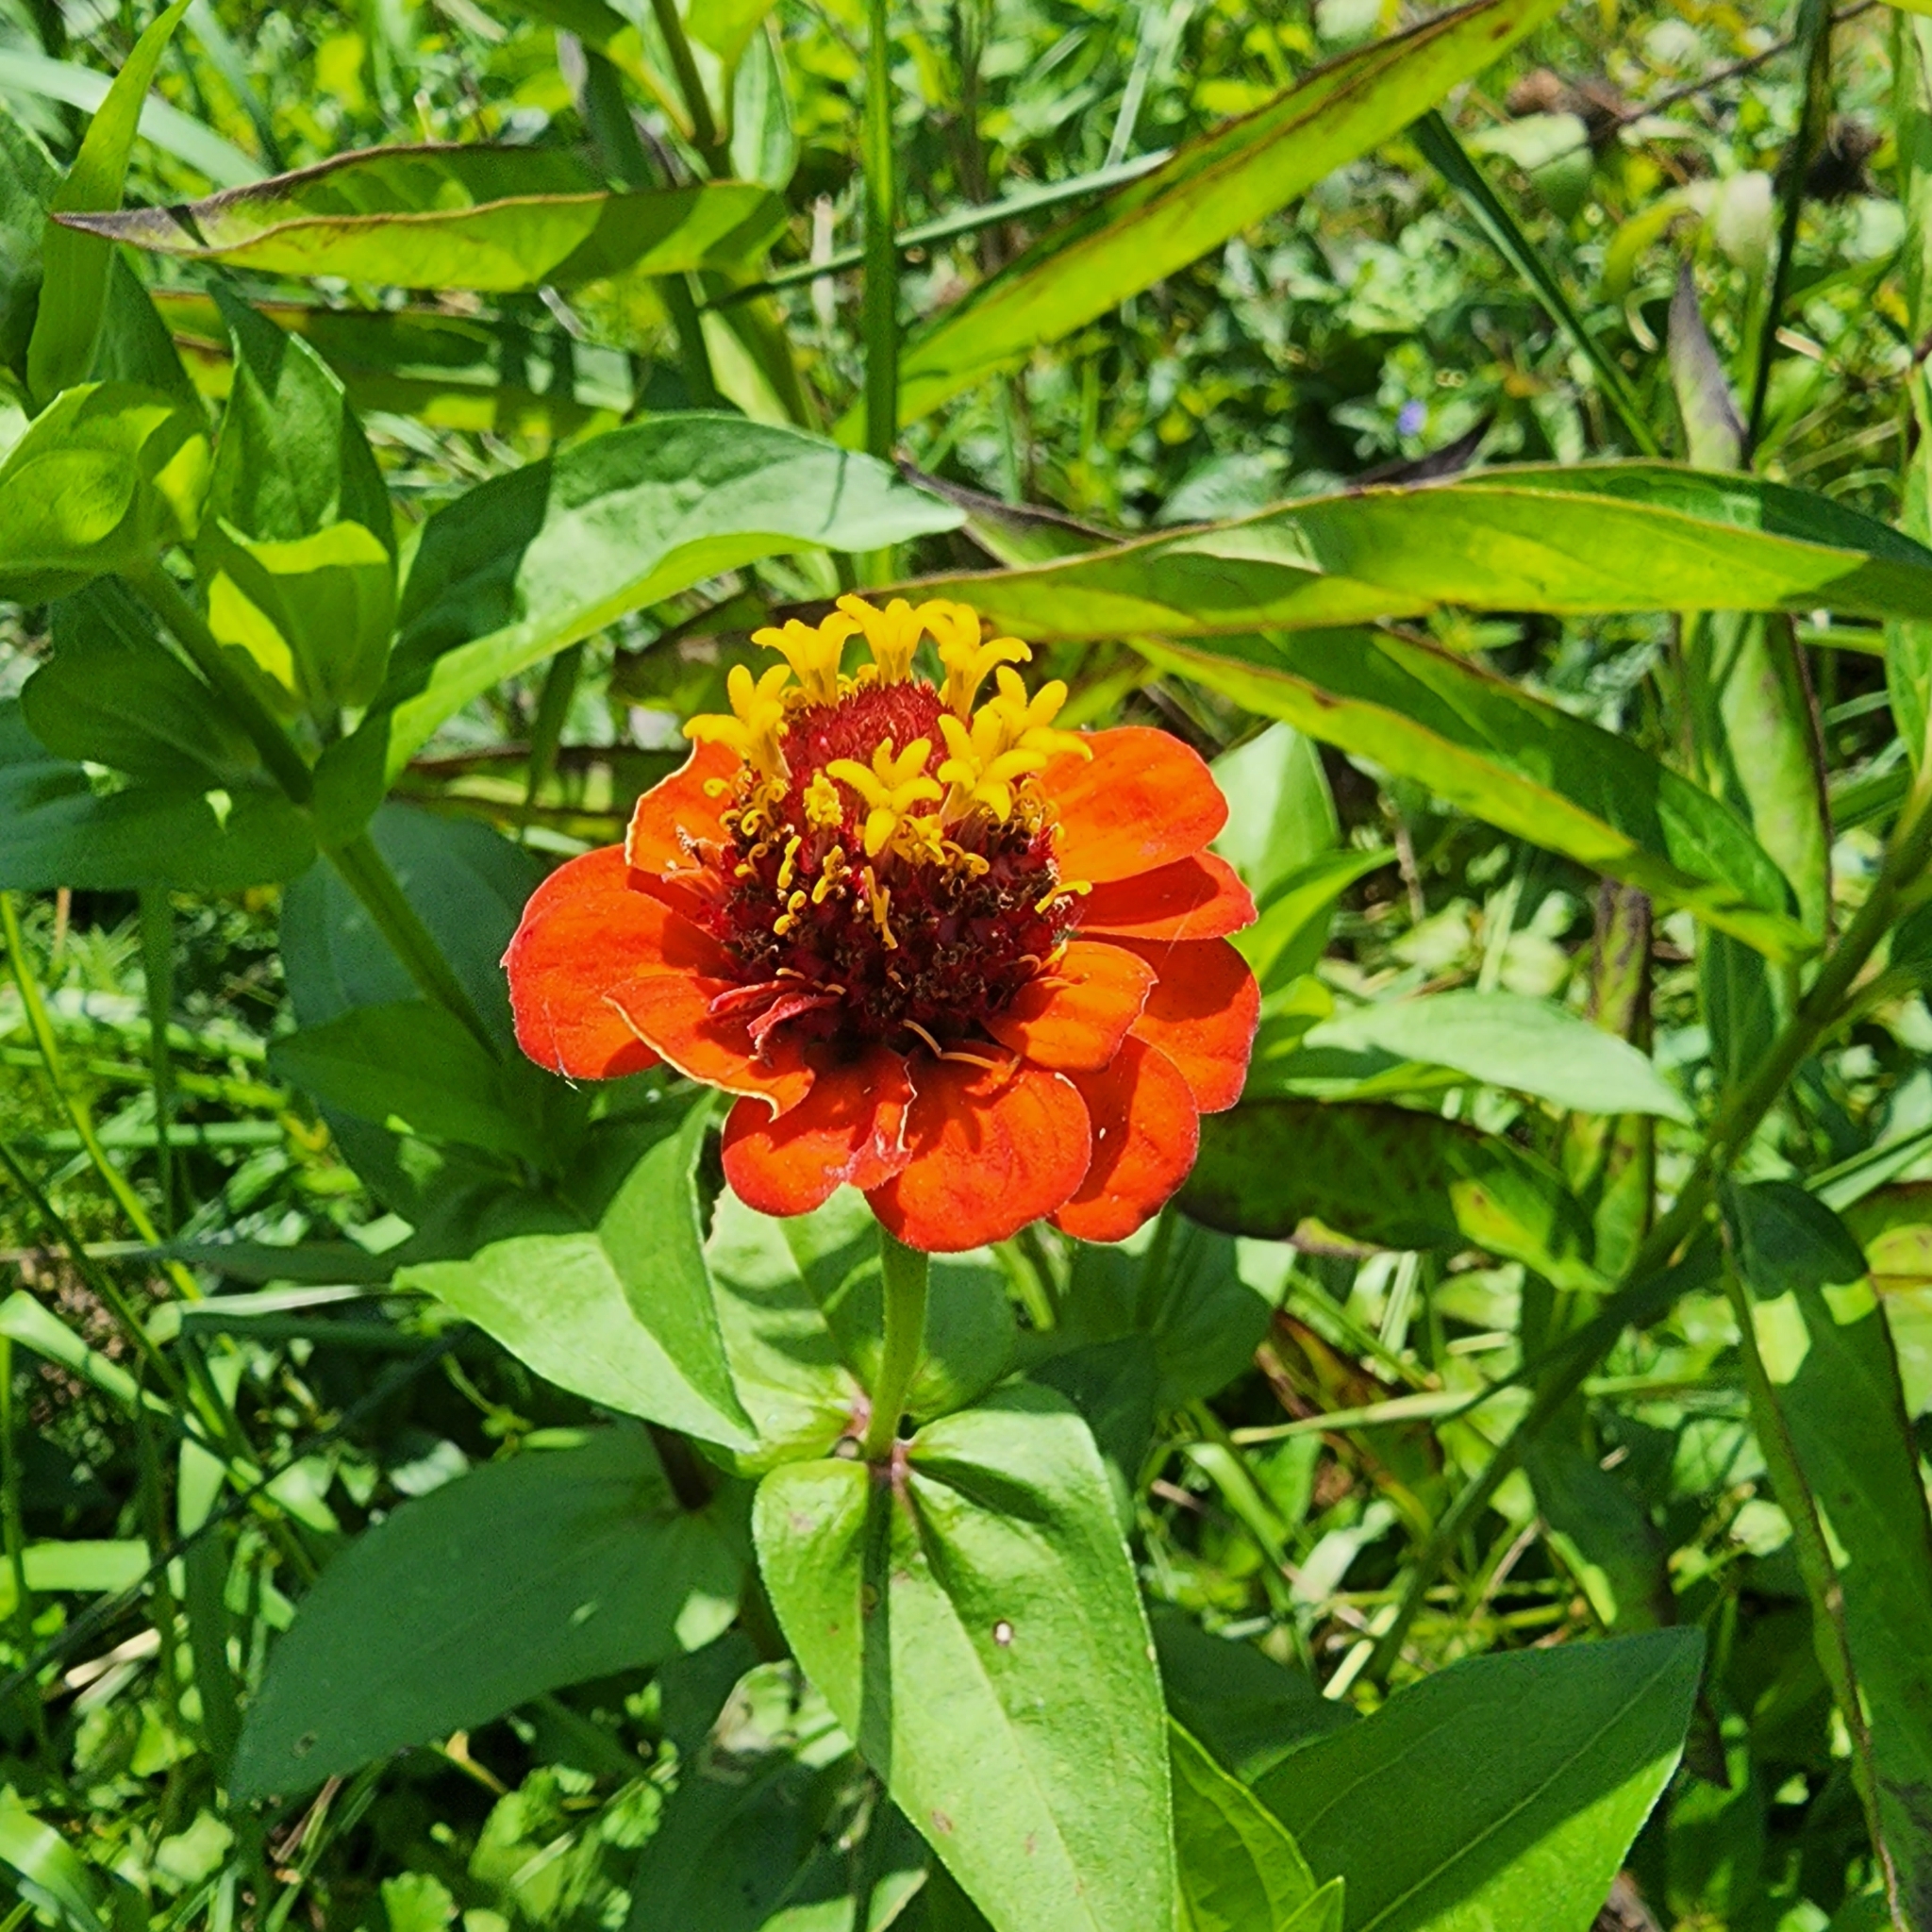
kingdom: Plantae
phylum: Tracheophyta
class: Magnoliopsida
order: Asterales
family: Asteraceae
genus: Zinnia
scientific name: Zinnia elegans
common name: Youth-and-age
